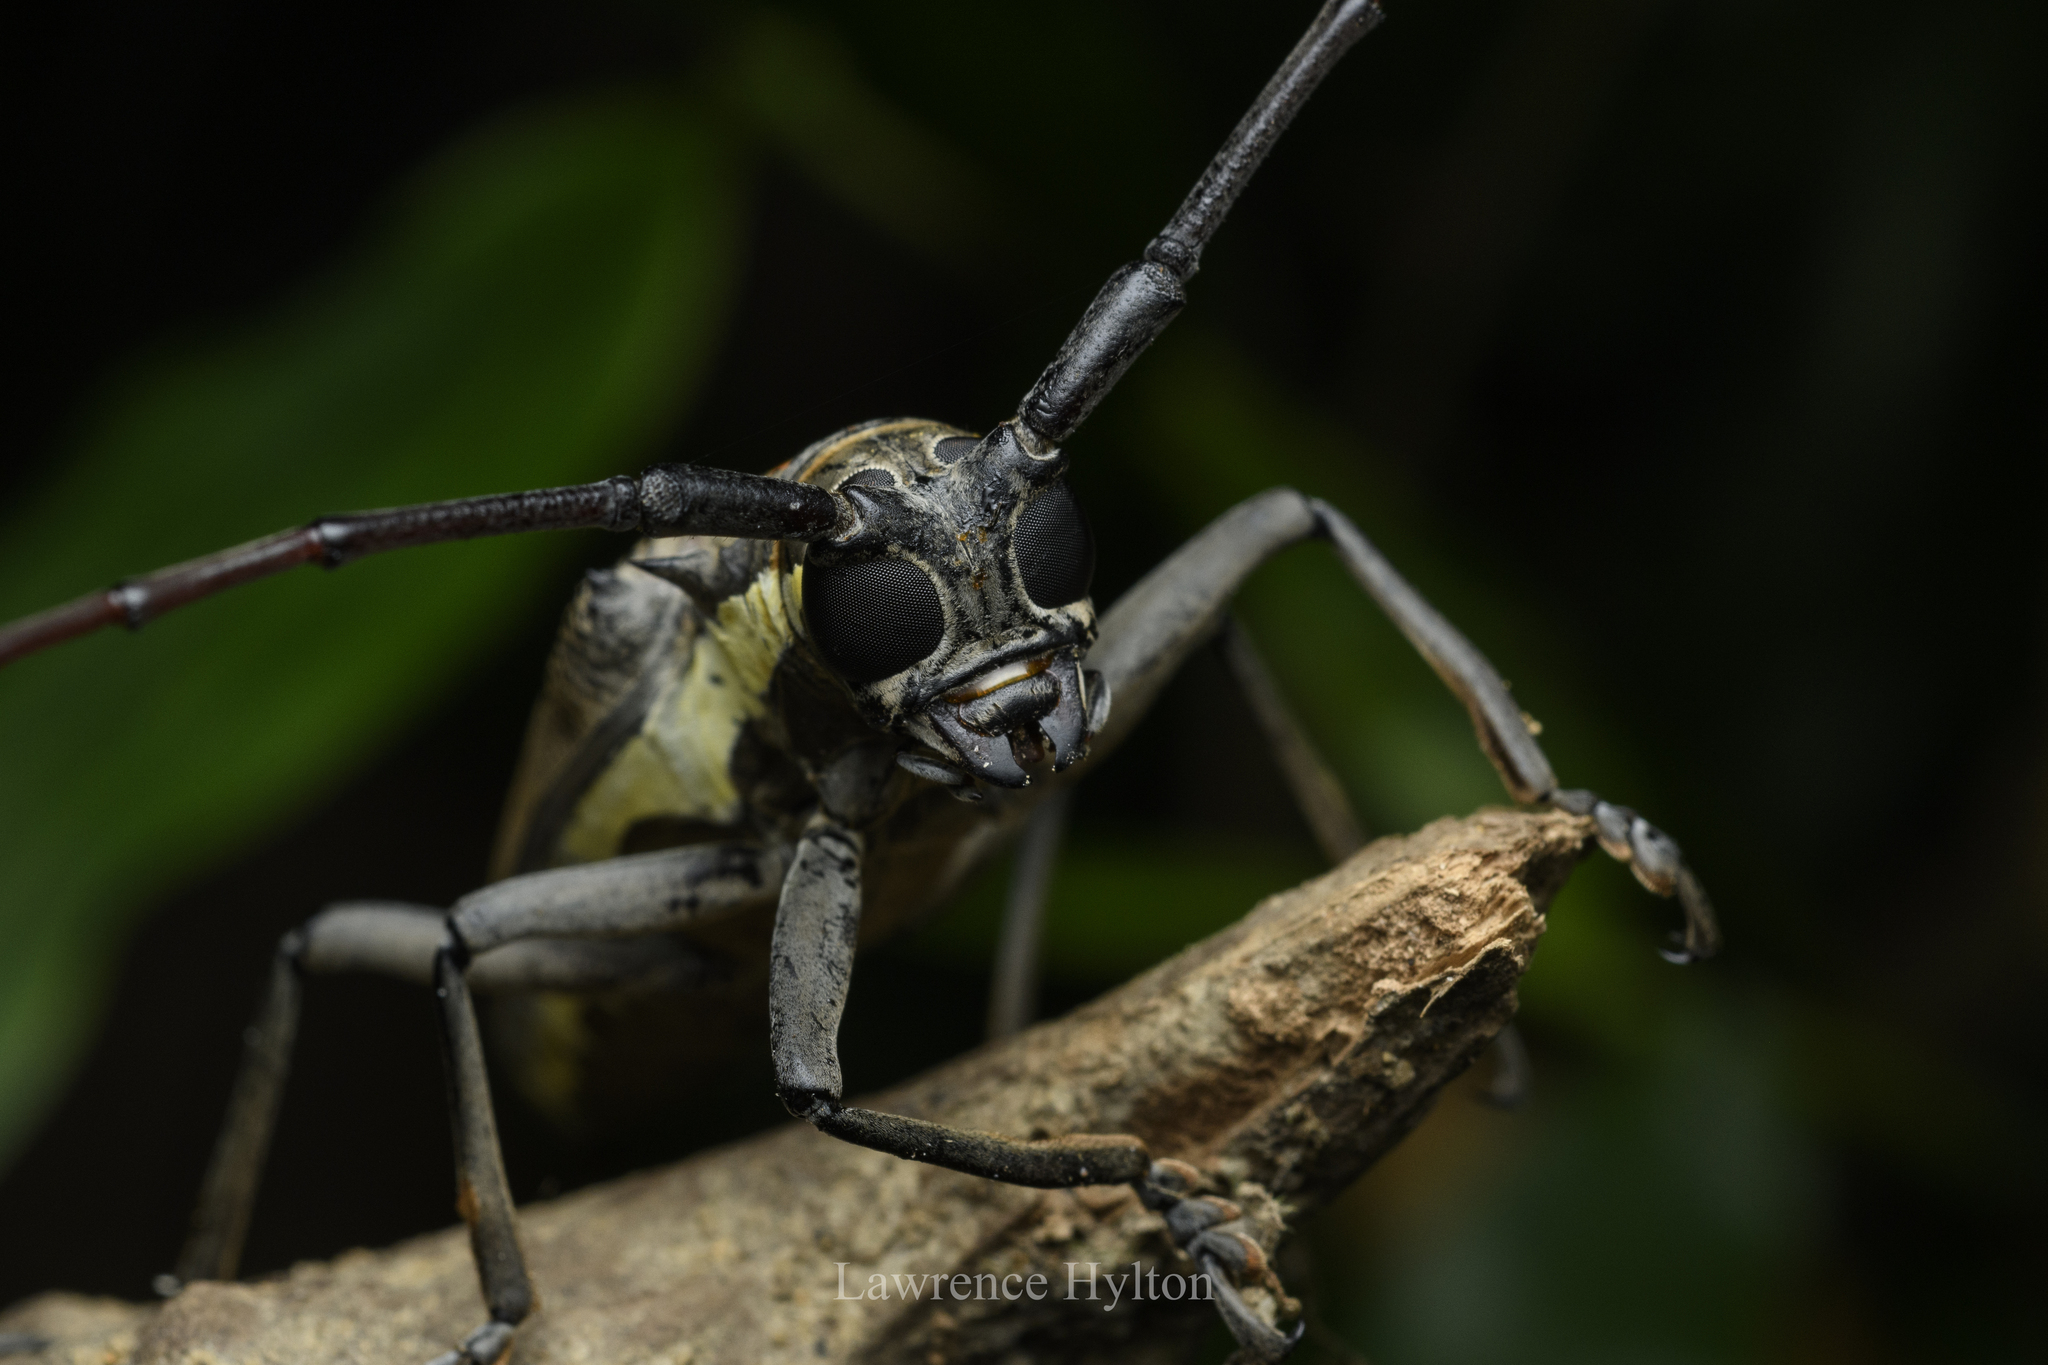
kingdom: Animalia
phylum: Arthropoda
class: Insecta
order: Coleoptera
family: Cerambycidae
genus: Batocera
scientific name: Batocera rubus
